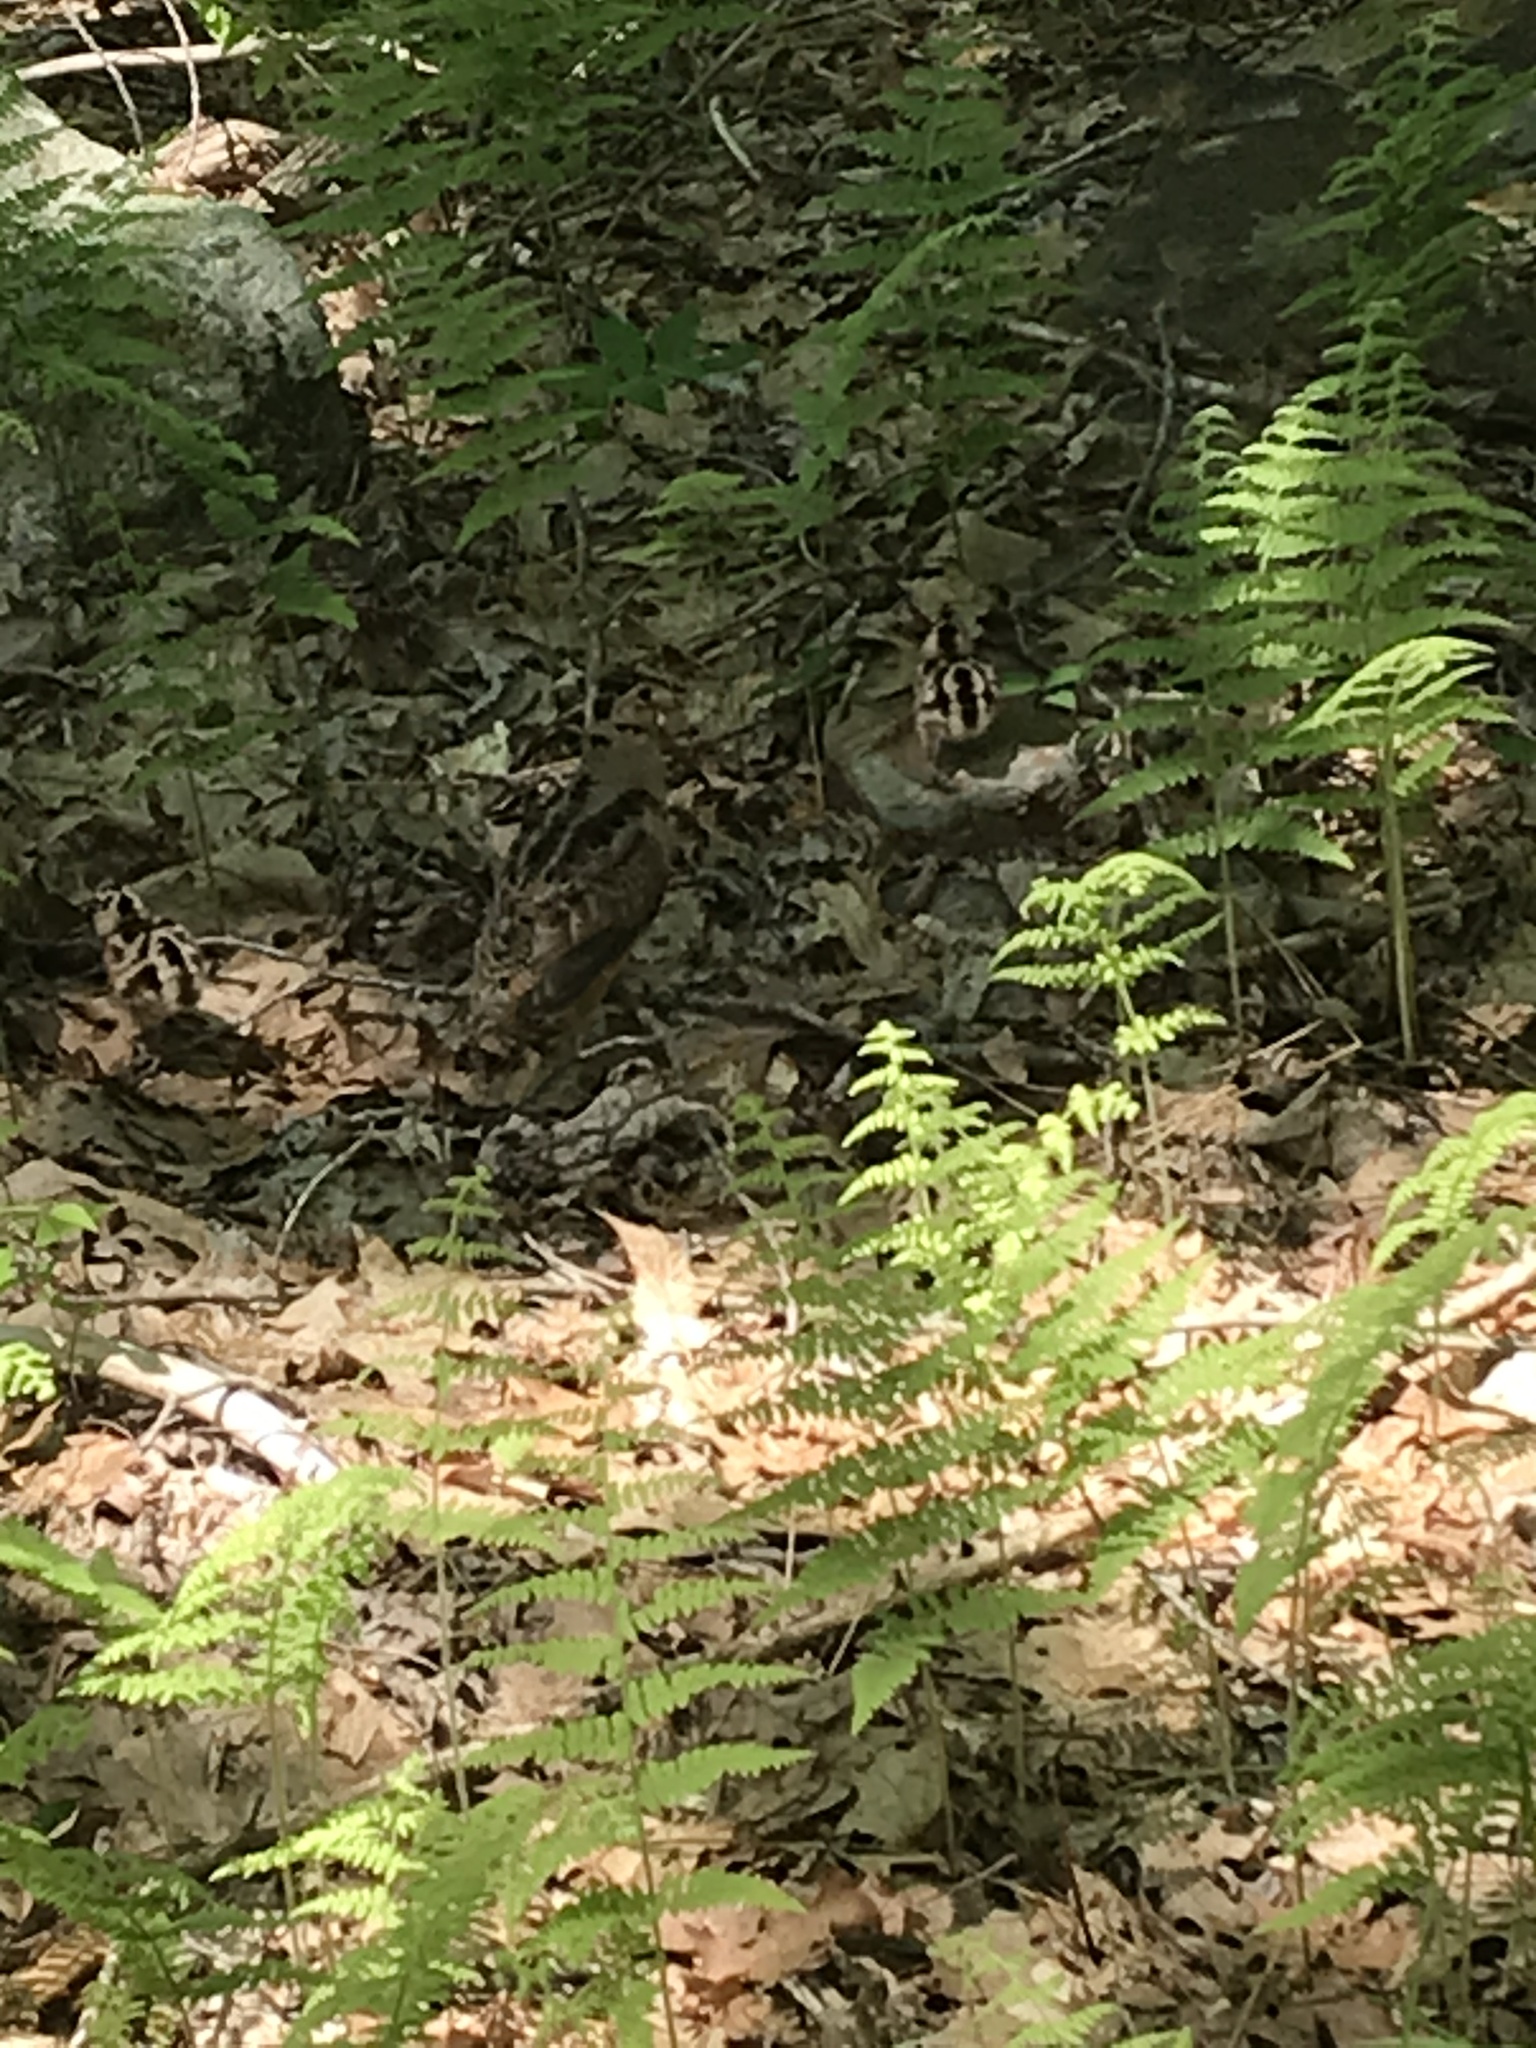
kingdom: Animalia
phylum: Chordata
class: Aves
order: Charadriiformes
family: Scolopacidae
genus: Scolopax
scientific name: Scolopax minor
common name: American woodcock
